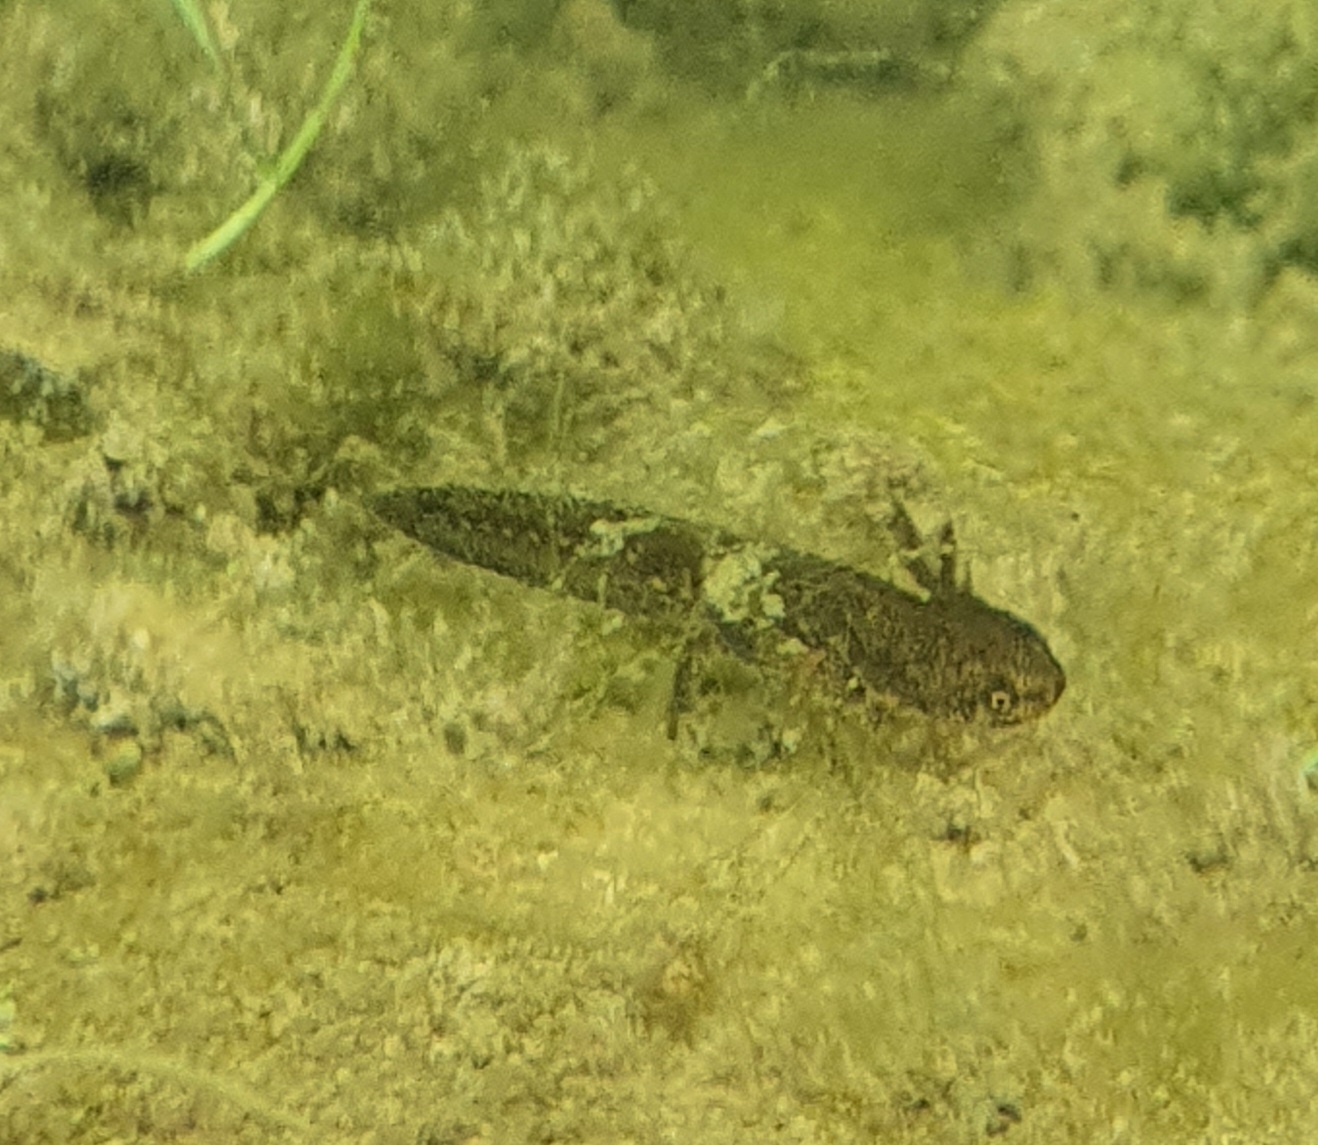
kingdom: Animalia
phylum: Chordata
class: Amphibia
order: Caudata
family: Salamandridae
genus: Lissotriton
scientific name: Lissotriton italicus
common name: Italian newt
